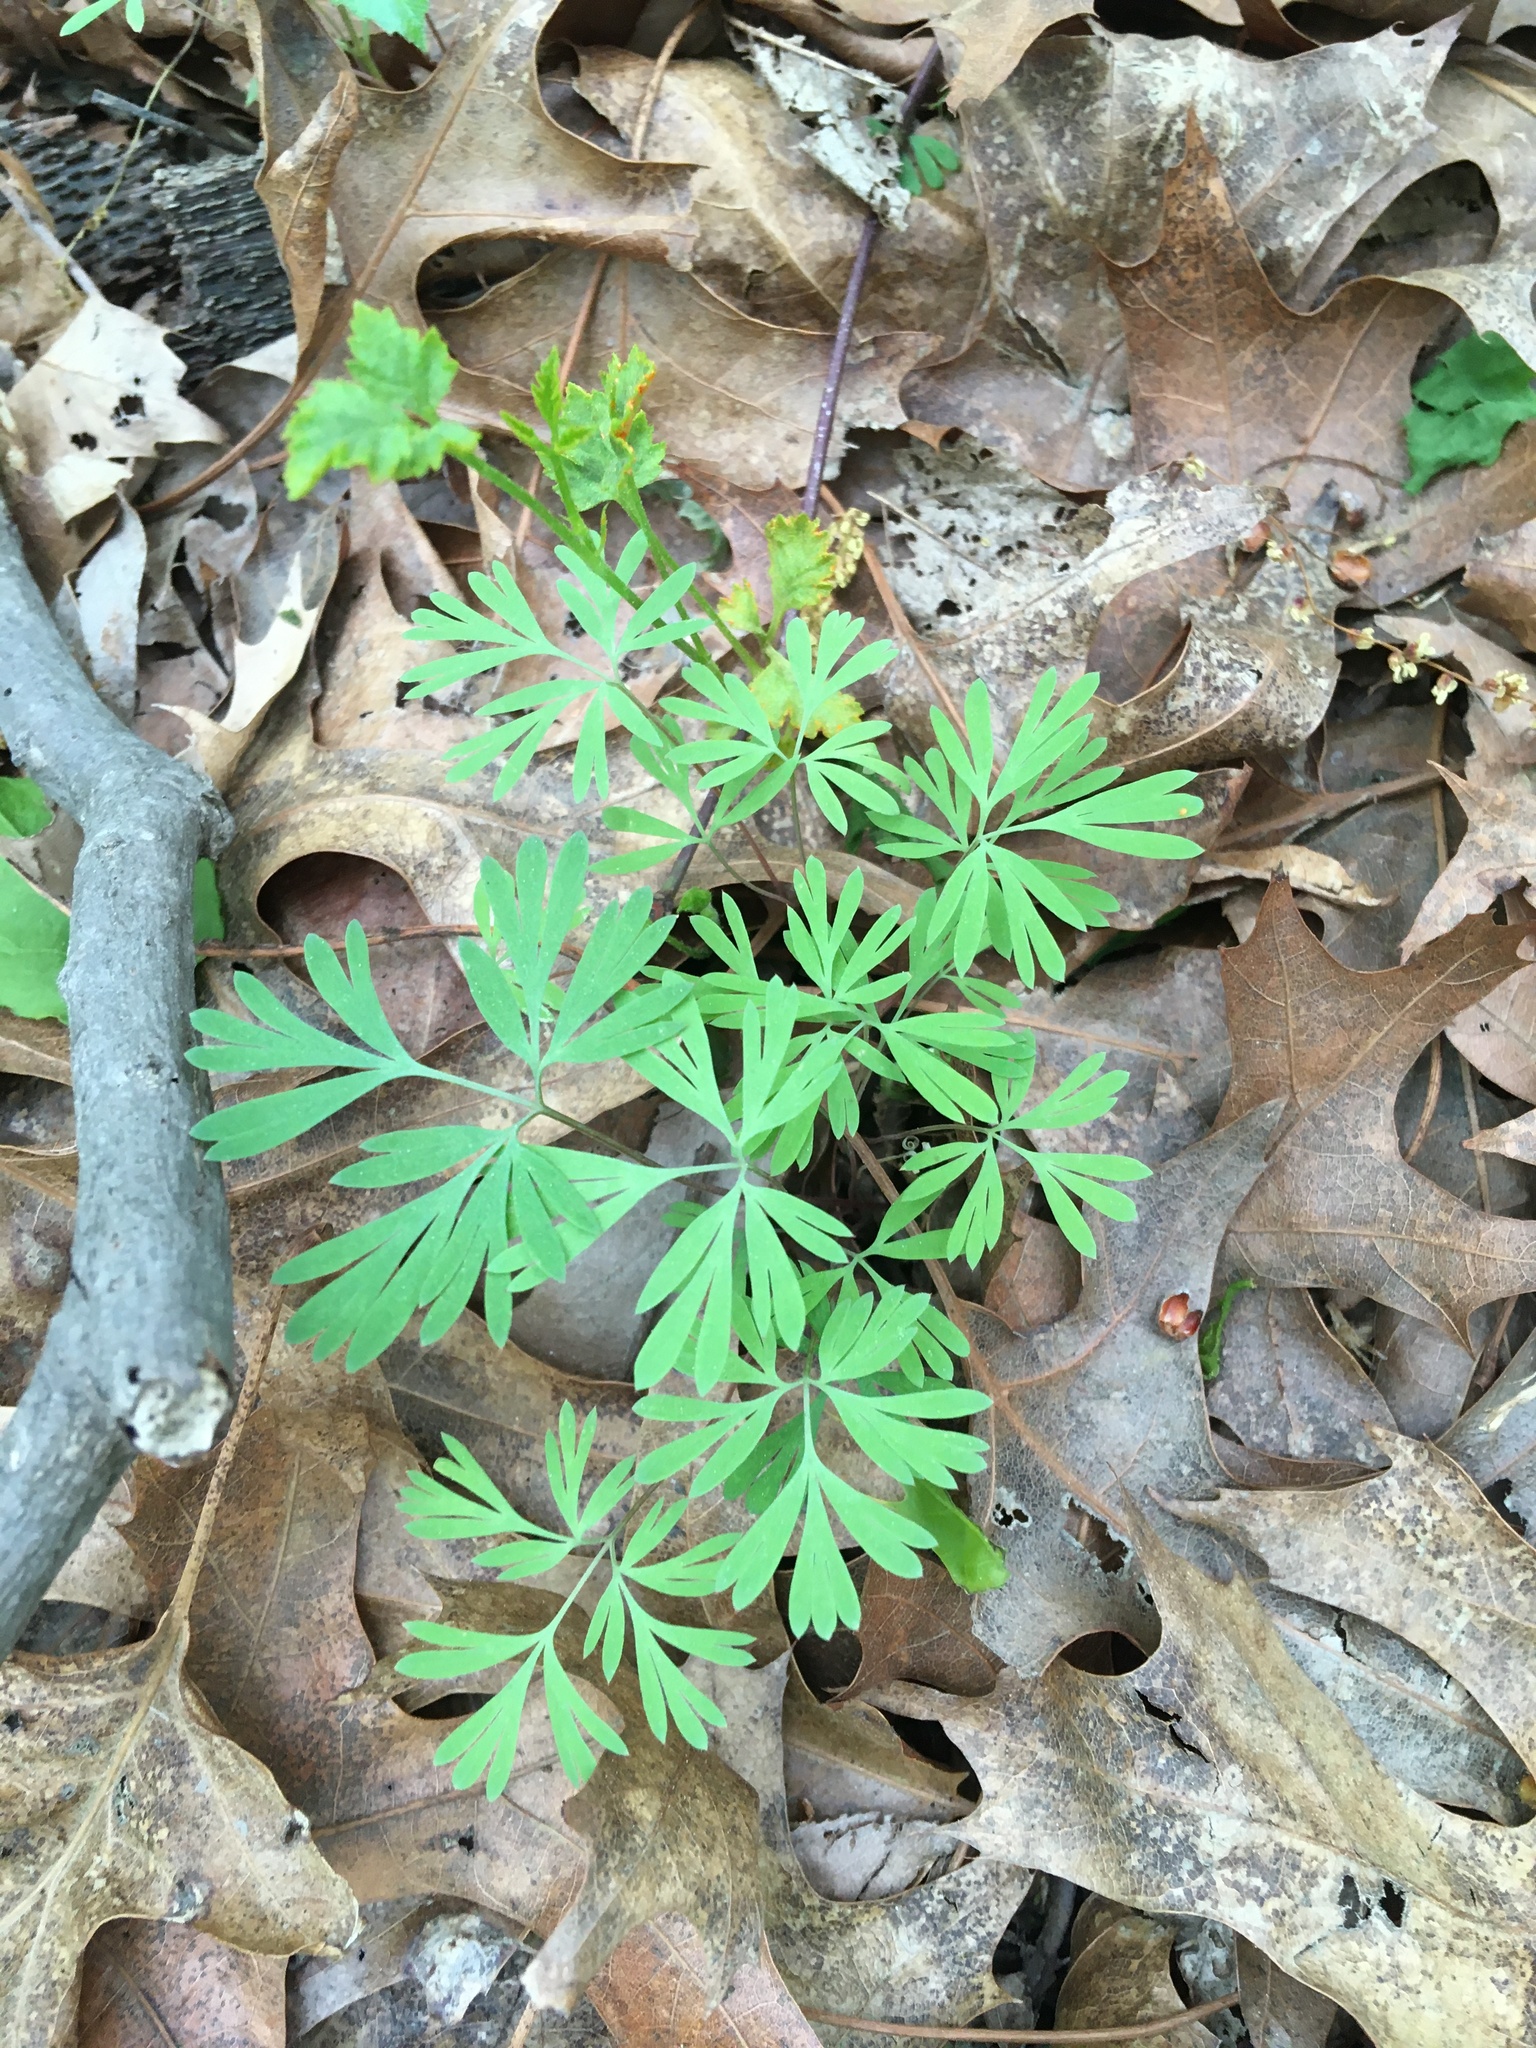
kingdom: Plantae
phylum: Tracheophyta
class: Magnoliopsida
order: Ranunculales
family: Papaveraceae
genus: Dicentra
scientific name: Dicentra cucullaria
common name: Dutchman's breeches
